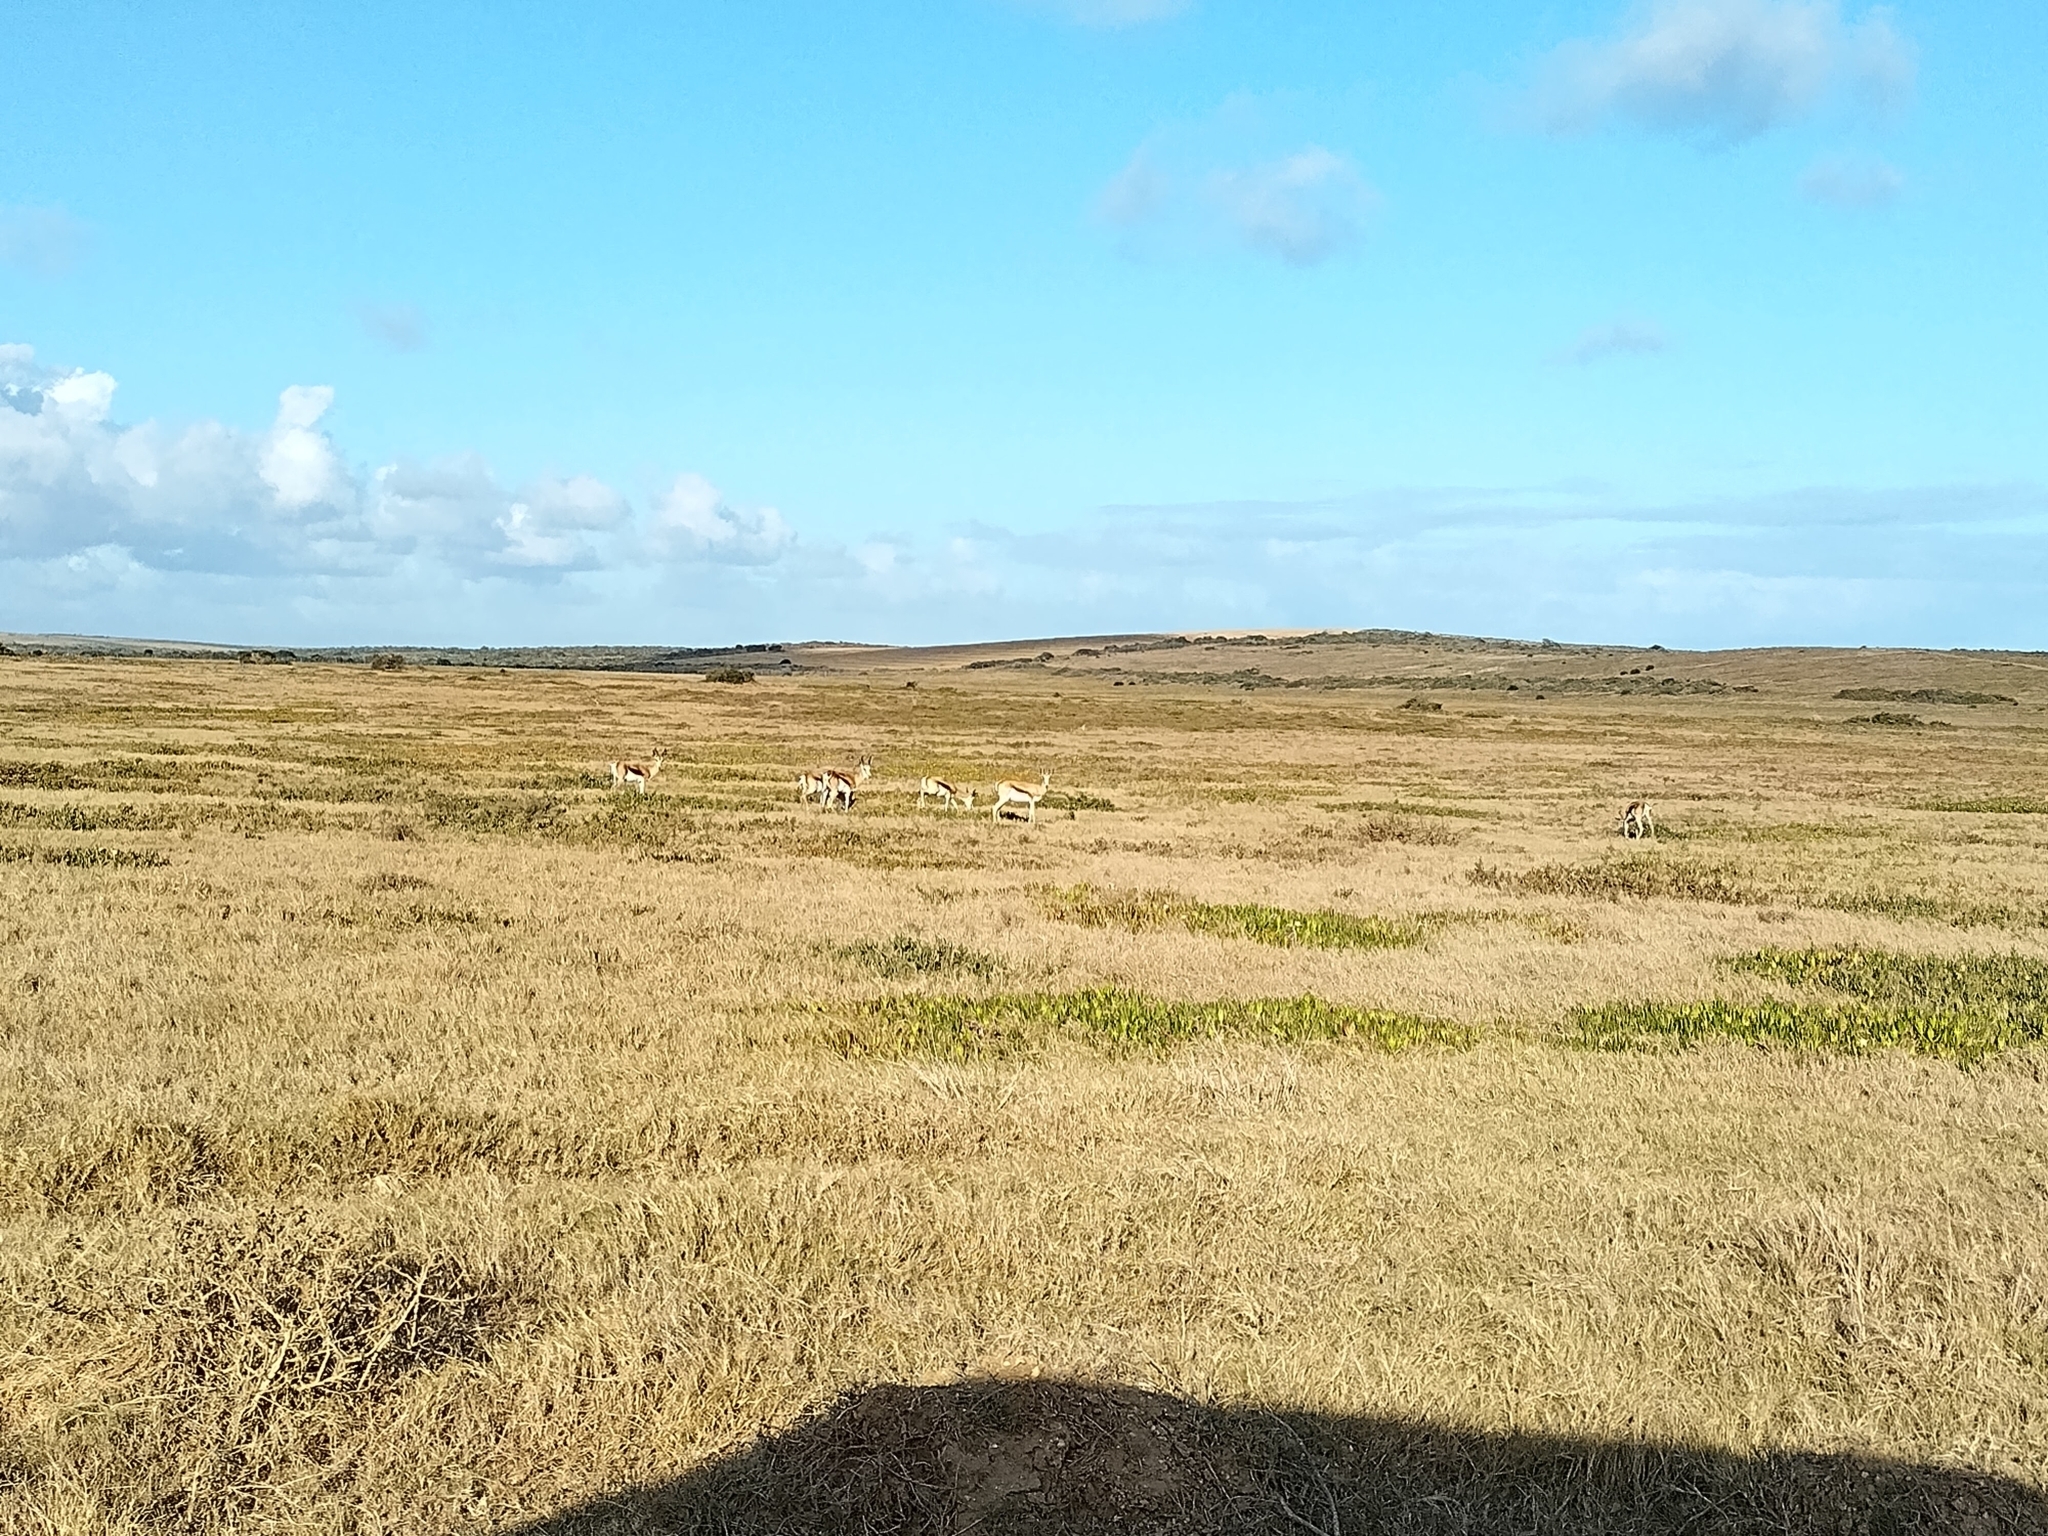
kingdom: Animalia
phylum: Chordata
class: Mammalia
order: Artiodactyla
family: Bovidae
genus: Antidorcas
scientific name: Antidorcas marsupialis
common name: Springbok
